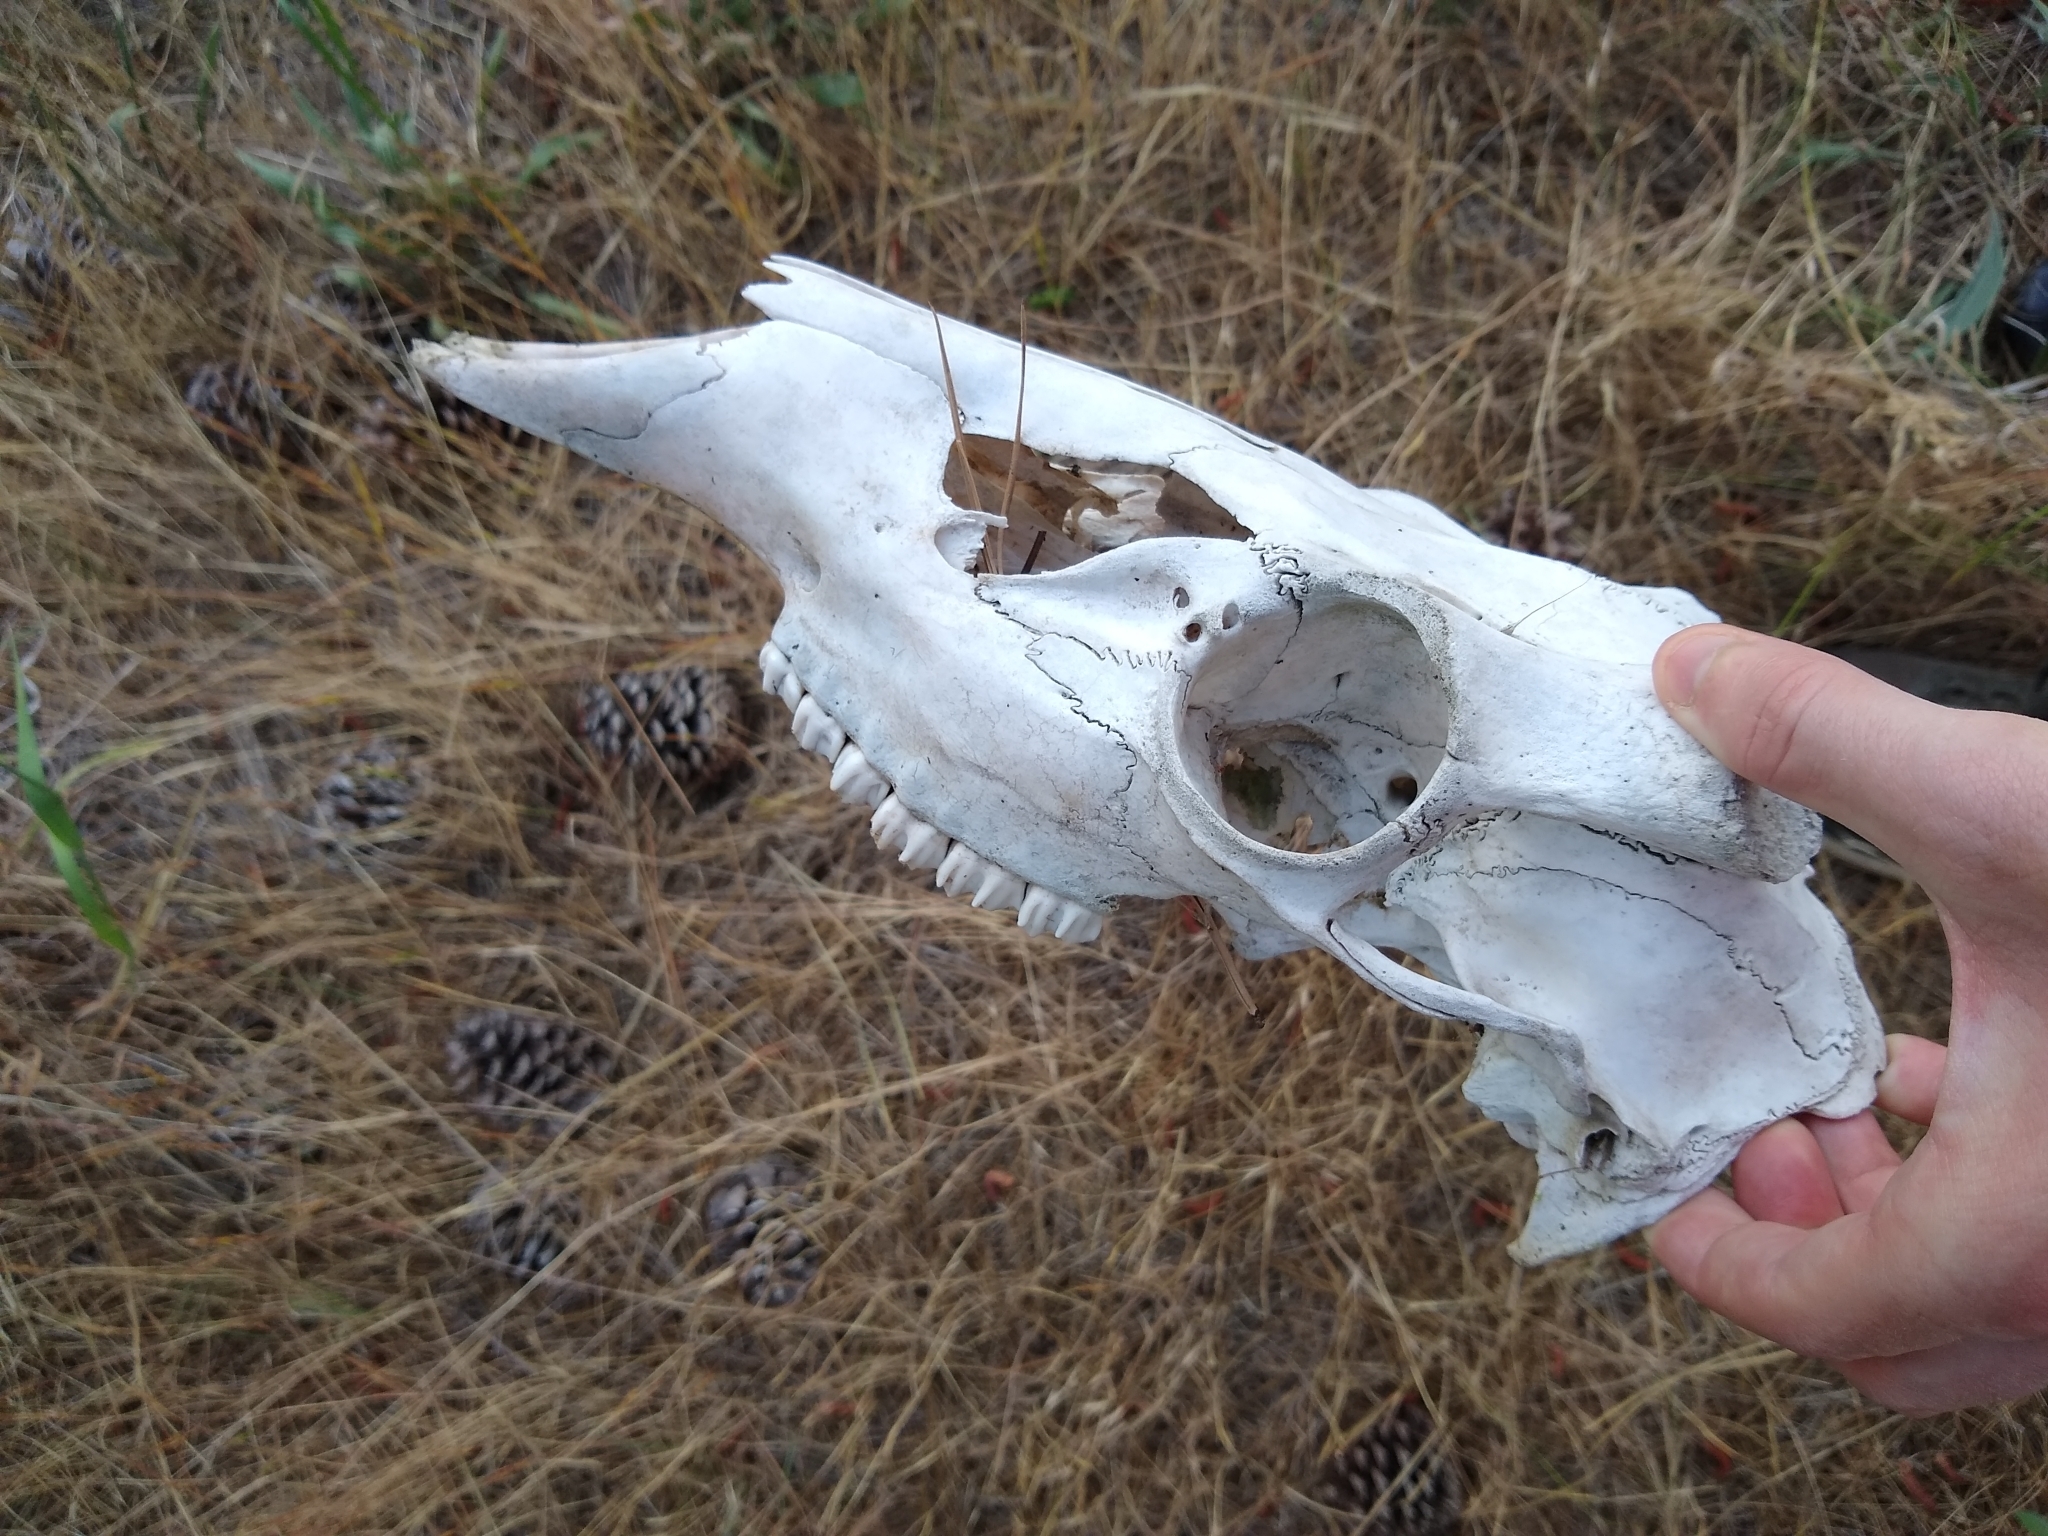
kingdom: Animalia
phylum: Chordata
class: Mammalia
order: Artiodactyla
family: Cervidae
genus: Odocoileus
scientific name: Odocoileus hemionus
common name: Mule deer
